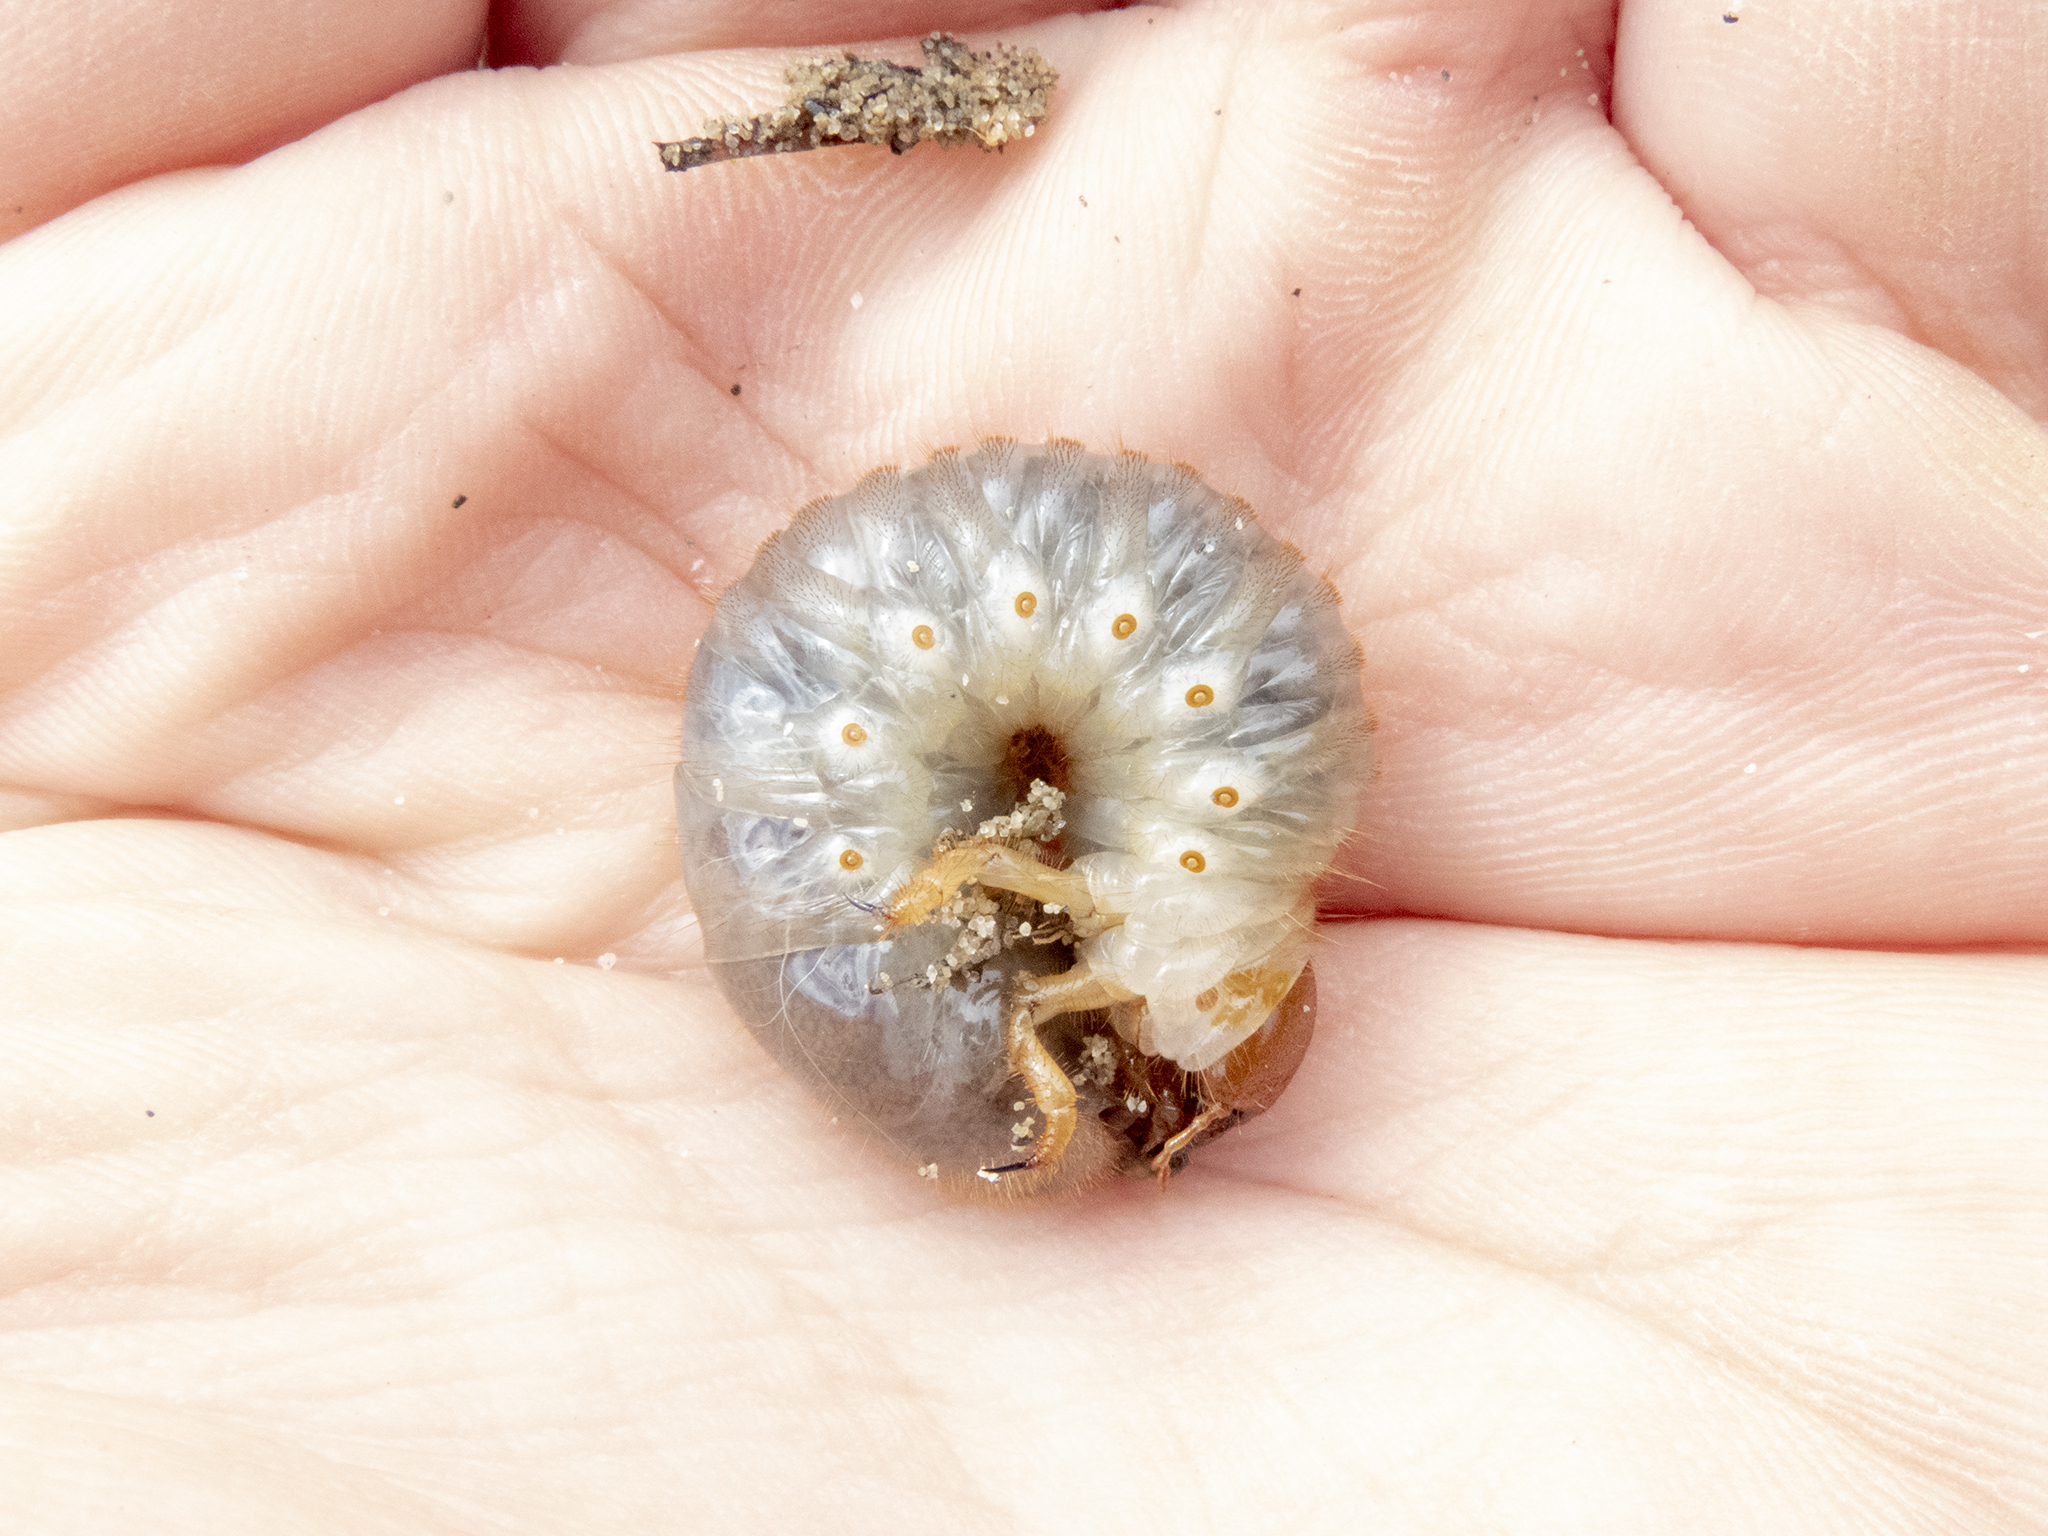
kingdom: Animalia
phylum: Arthropoda
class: Insecta
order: Coleoptera
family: Scarabaeidae
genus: Pericoptus
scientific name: Pericoptus truncatus
